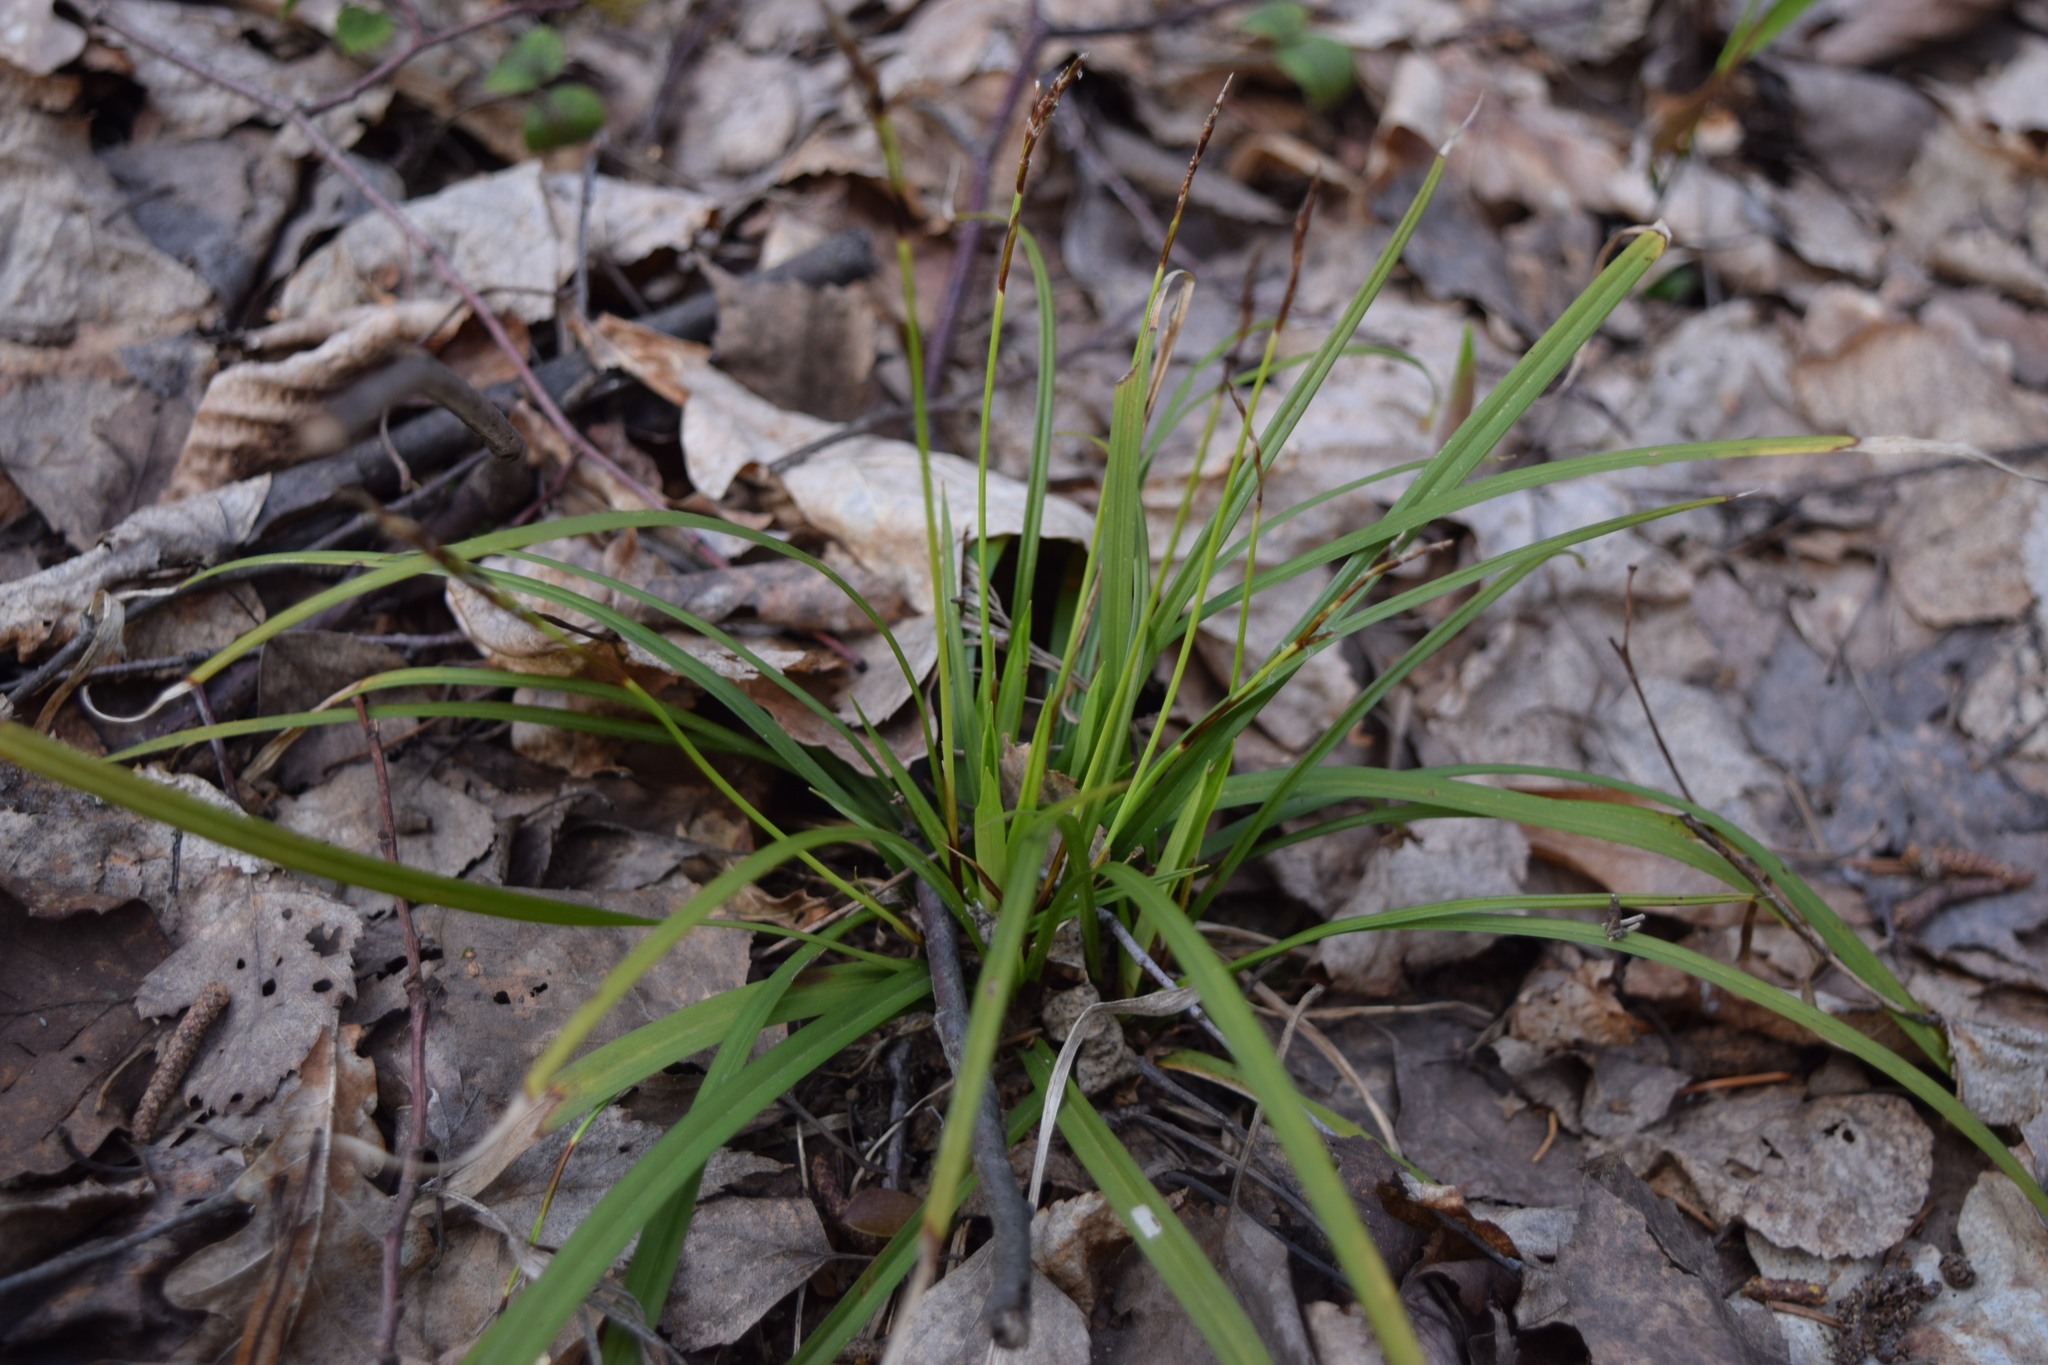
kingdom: Plantae
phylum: Tracheophyta
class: Liliopsida
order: Poales
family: Cyperaceae
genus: Carex
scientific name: Carex digitata
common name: Fingered sedge
